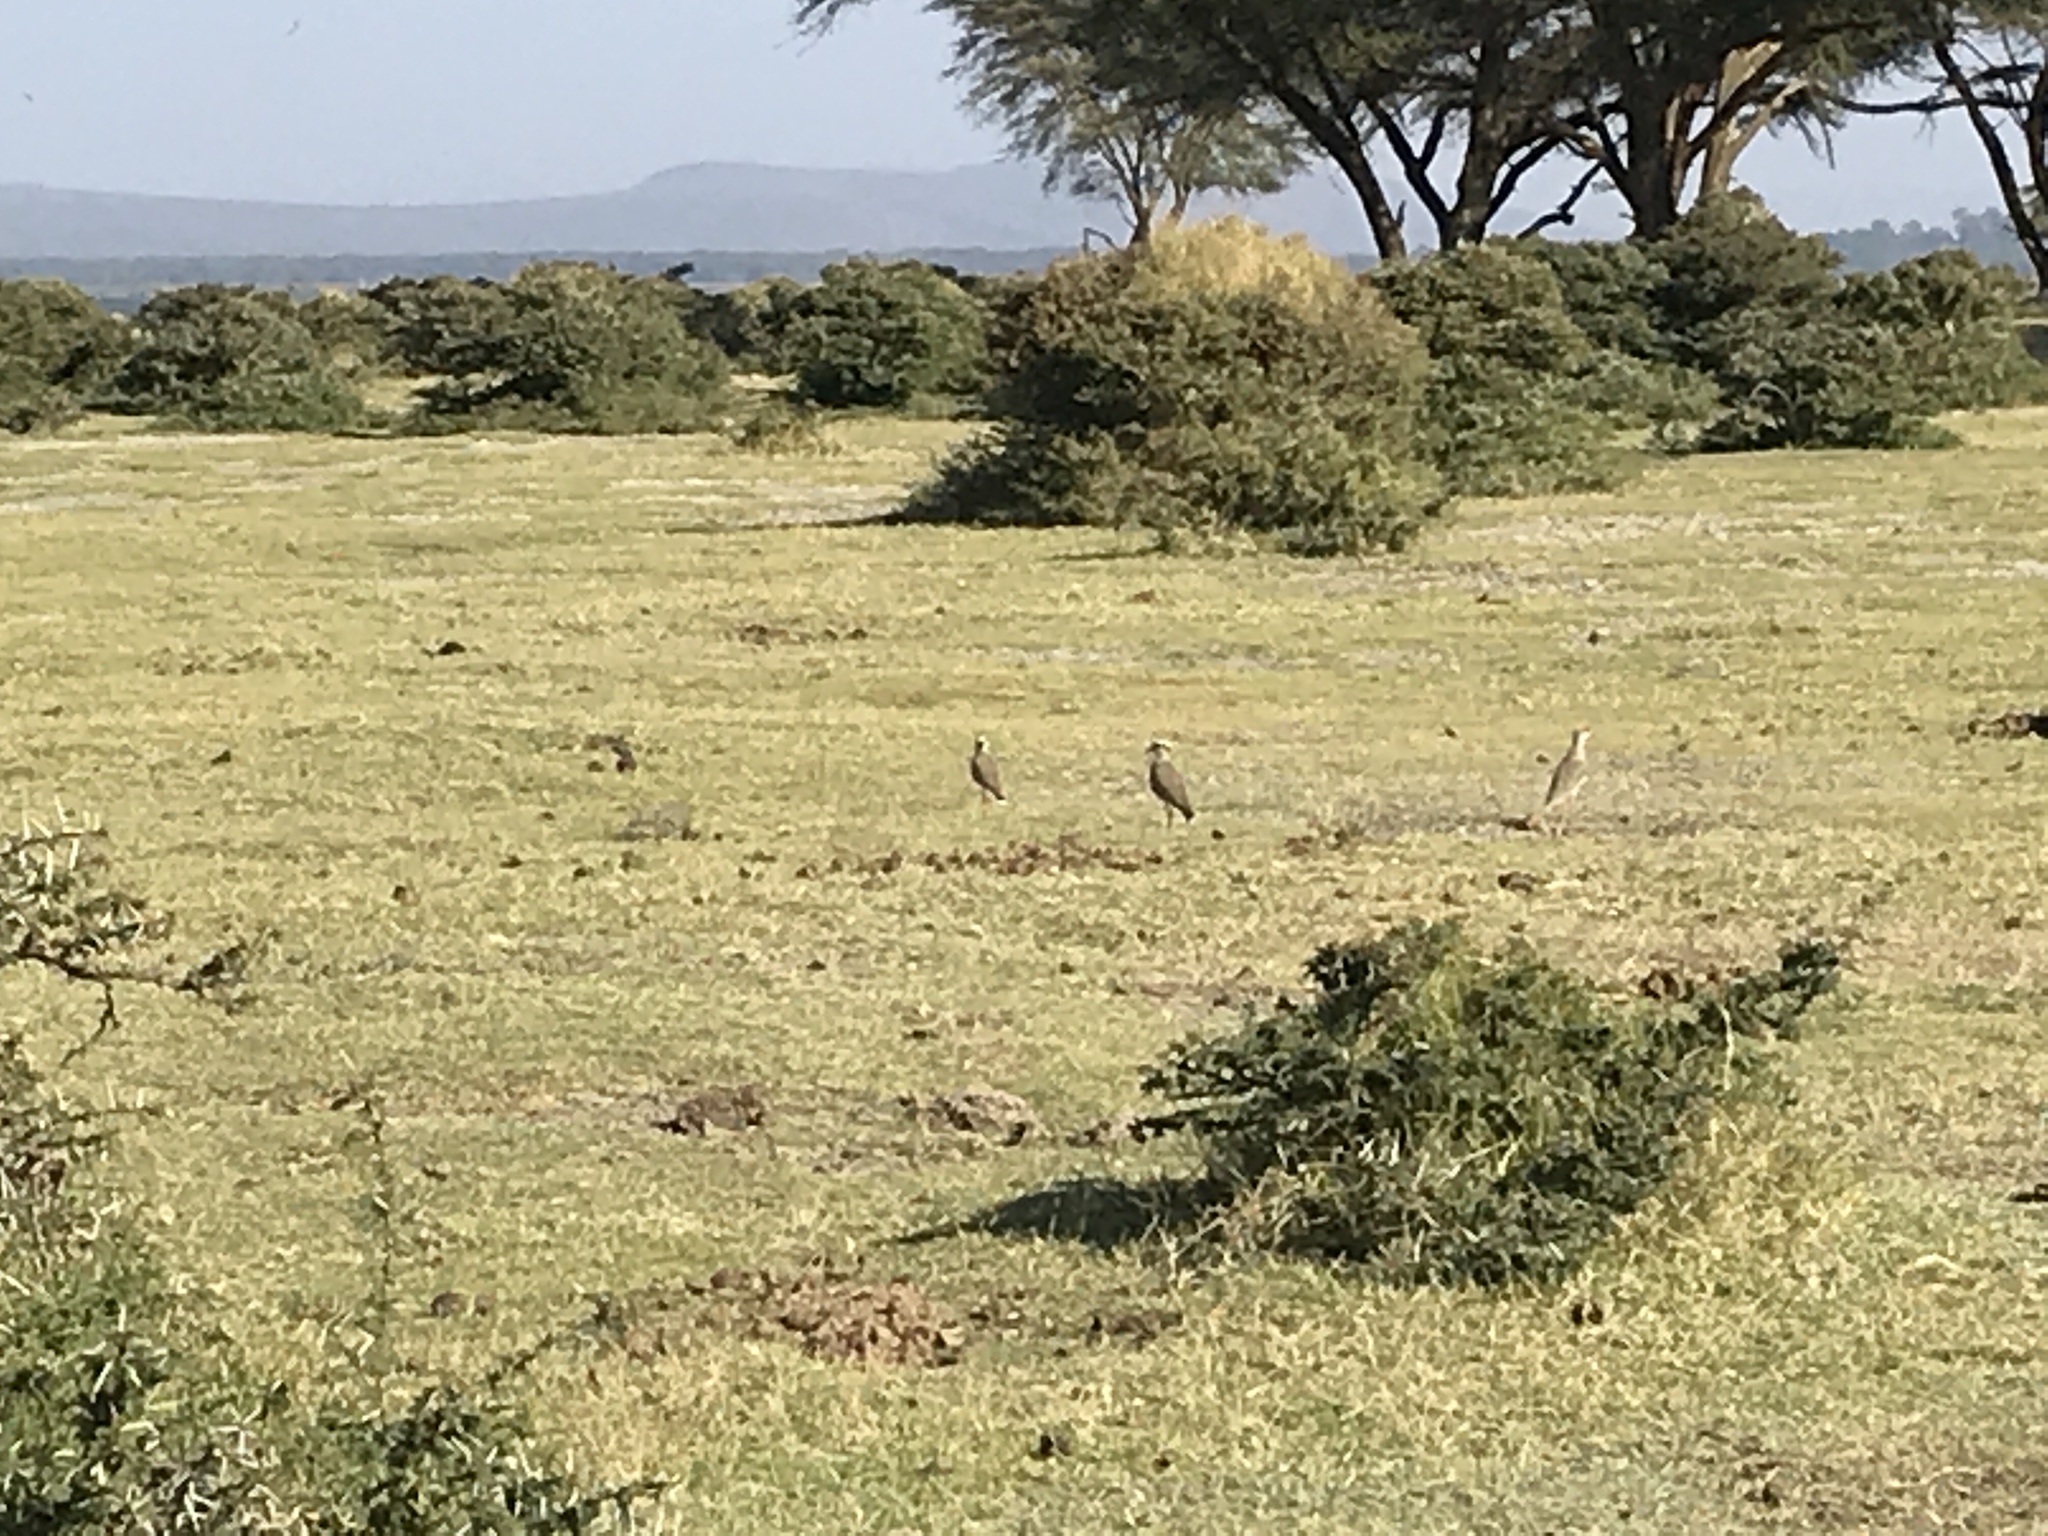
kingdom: Animalia
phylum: Chordata
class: Aves
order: Charadriiformes
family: Glareolidae
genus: Cursorius
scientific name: Cursorius temminckii
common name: Temminck's courser
